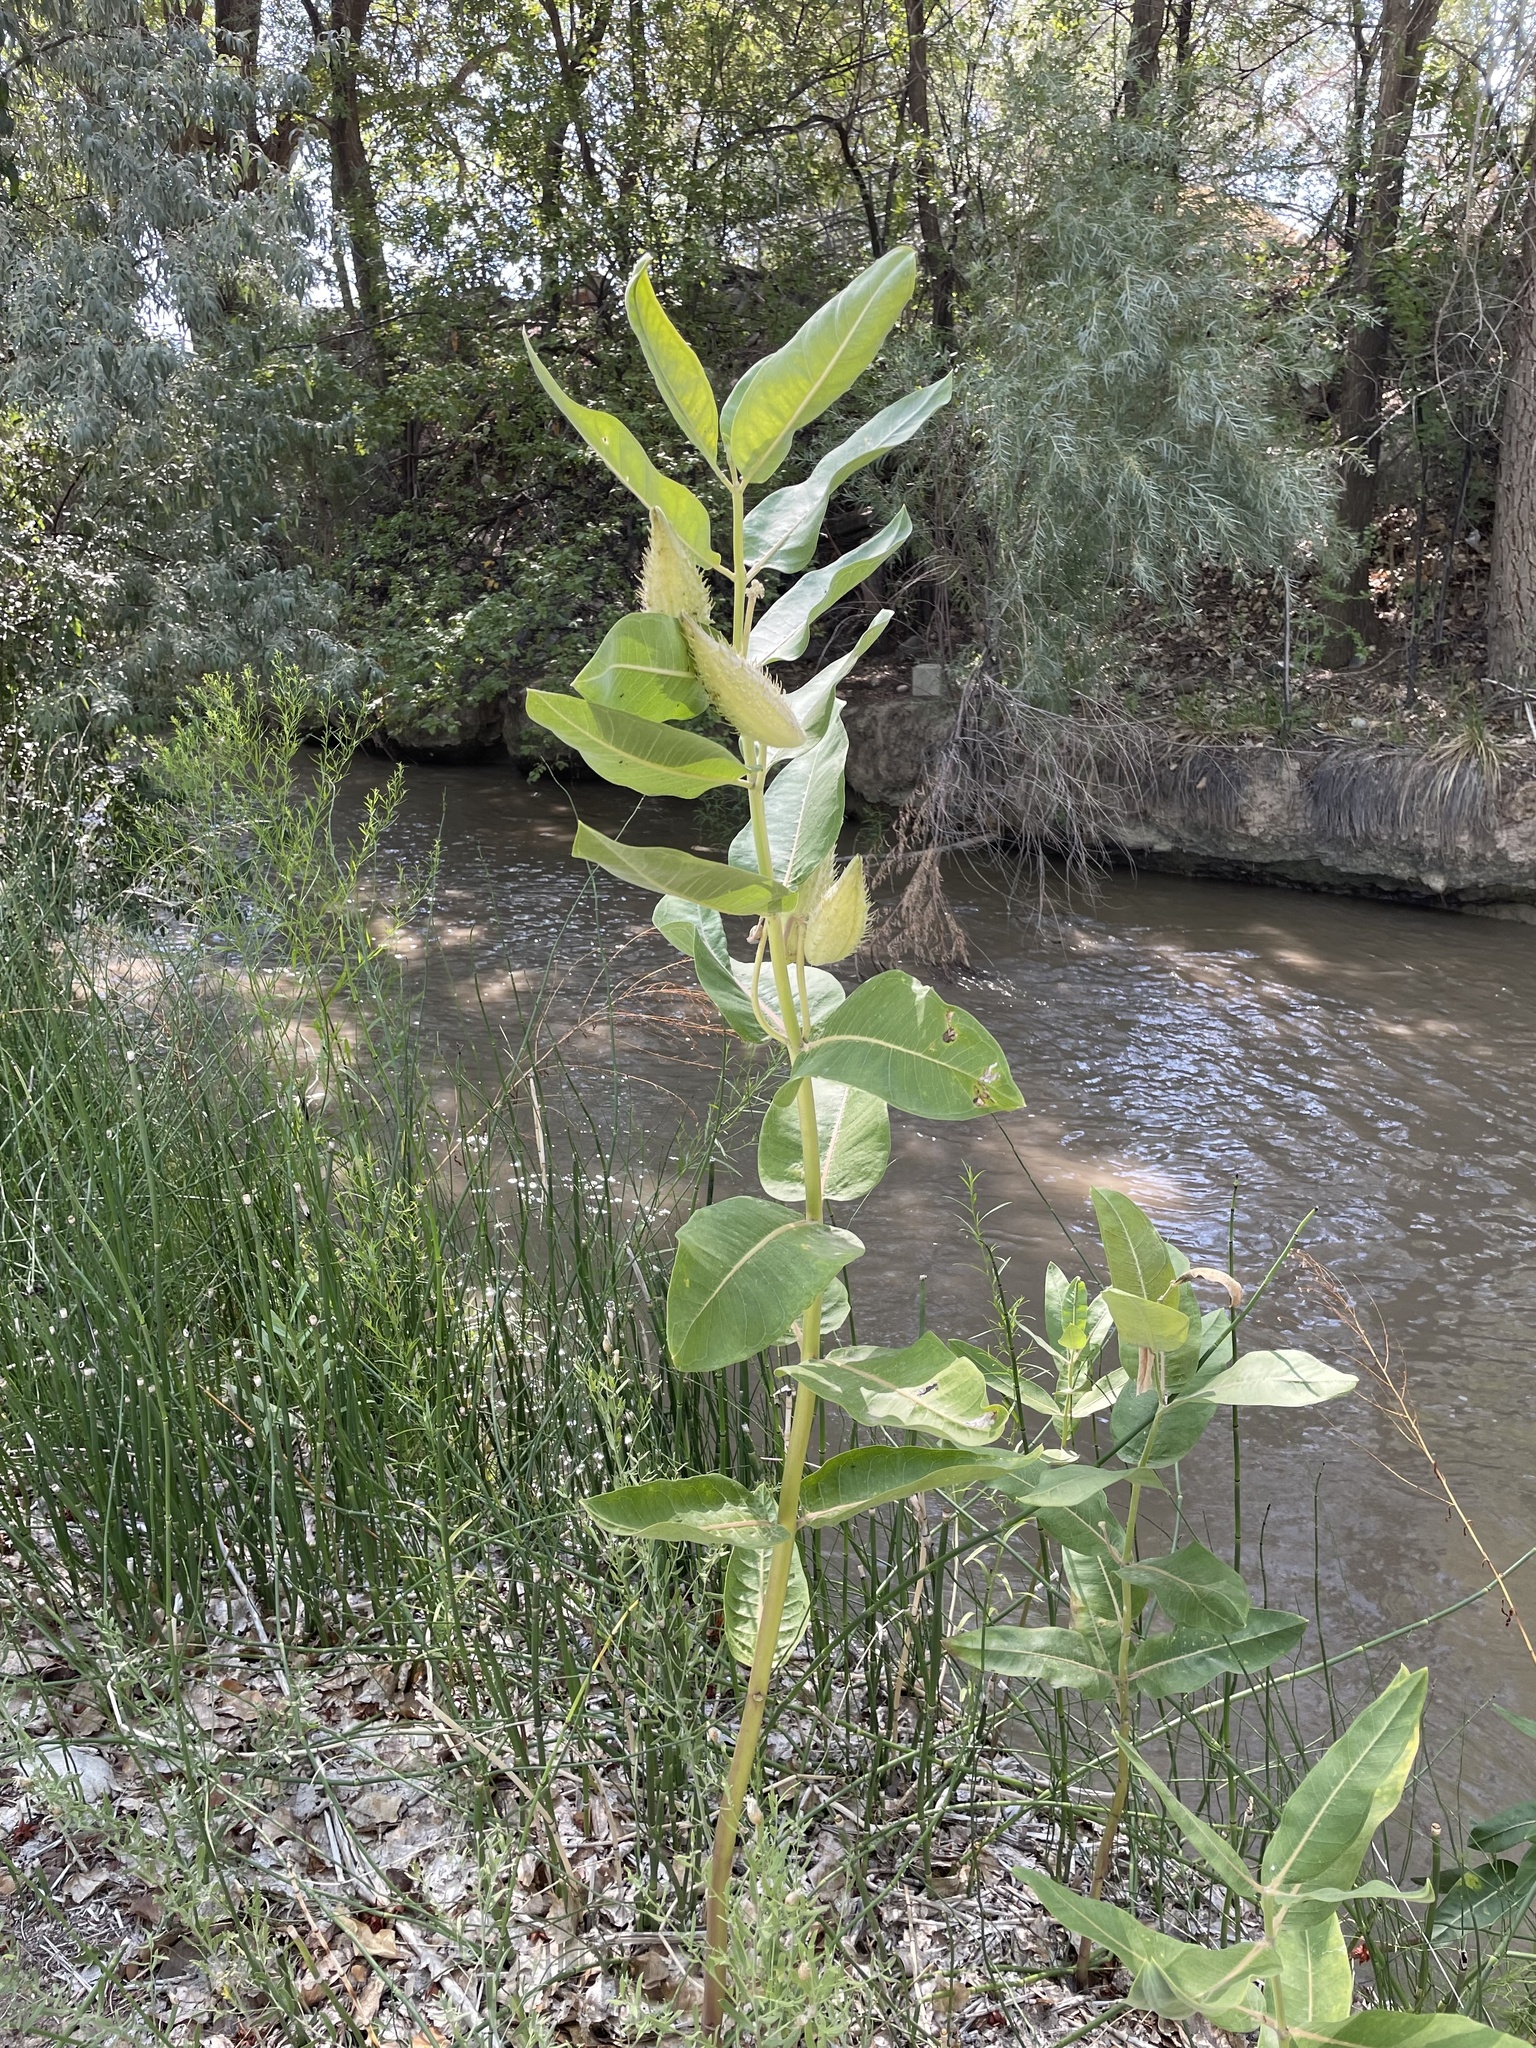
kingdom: Plantae
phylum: Tracheophyta
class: Magnoliopsida
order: Gentianales
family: Apocynaceae
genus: Asclepias
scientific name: Asclepias speciosa
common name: Showy milkweed
